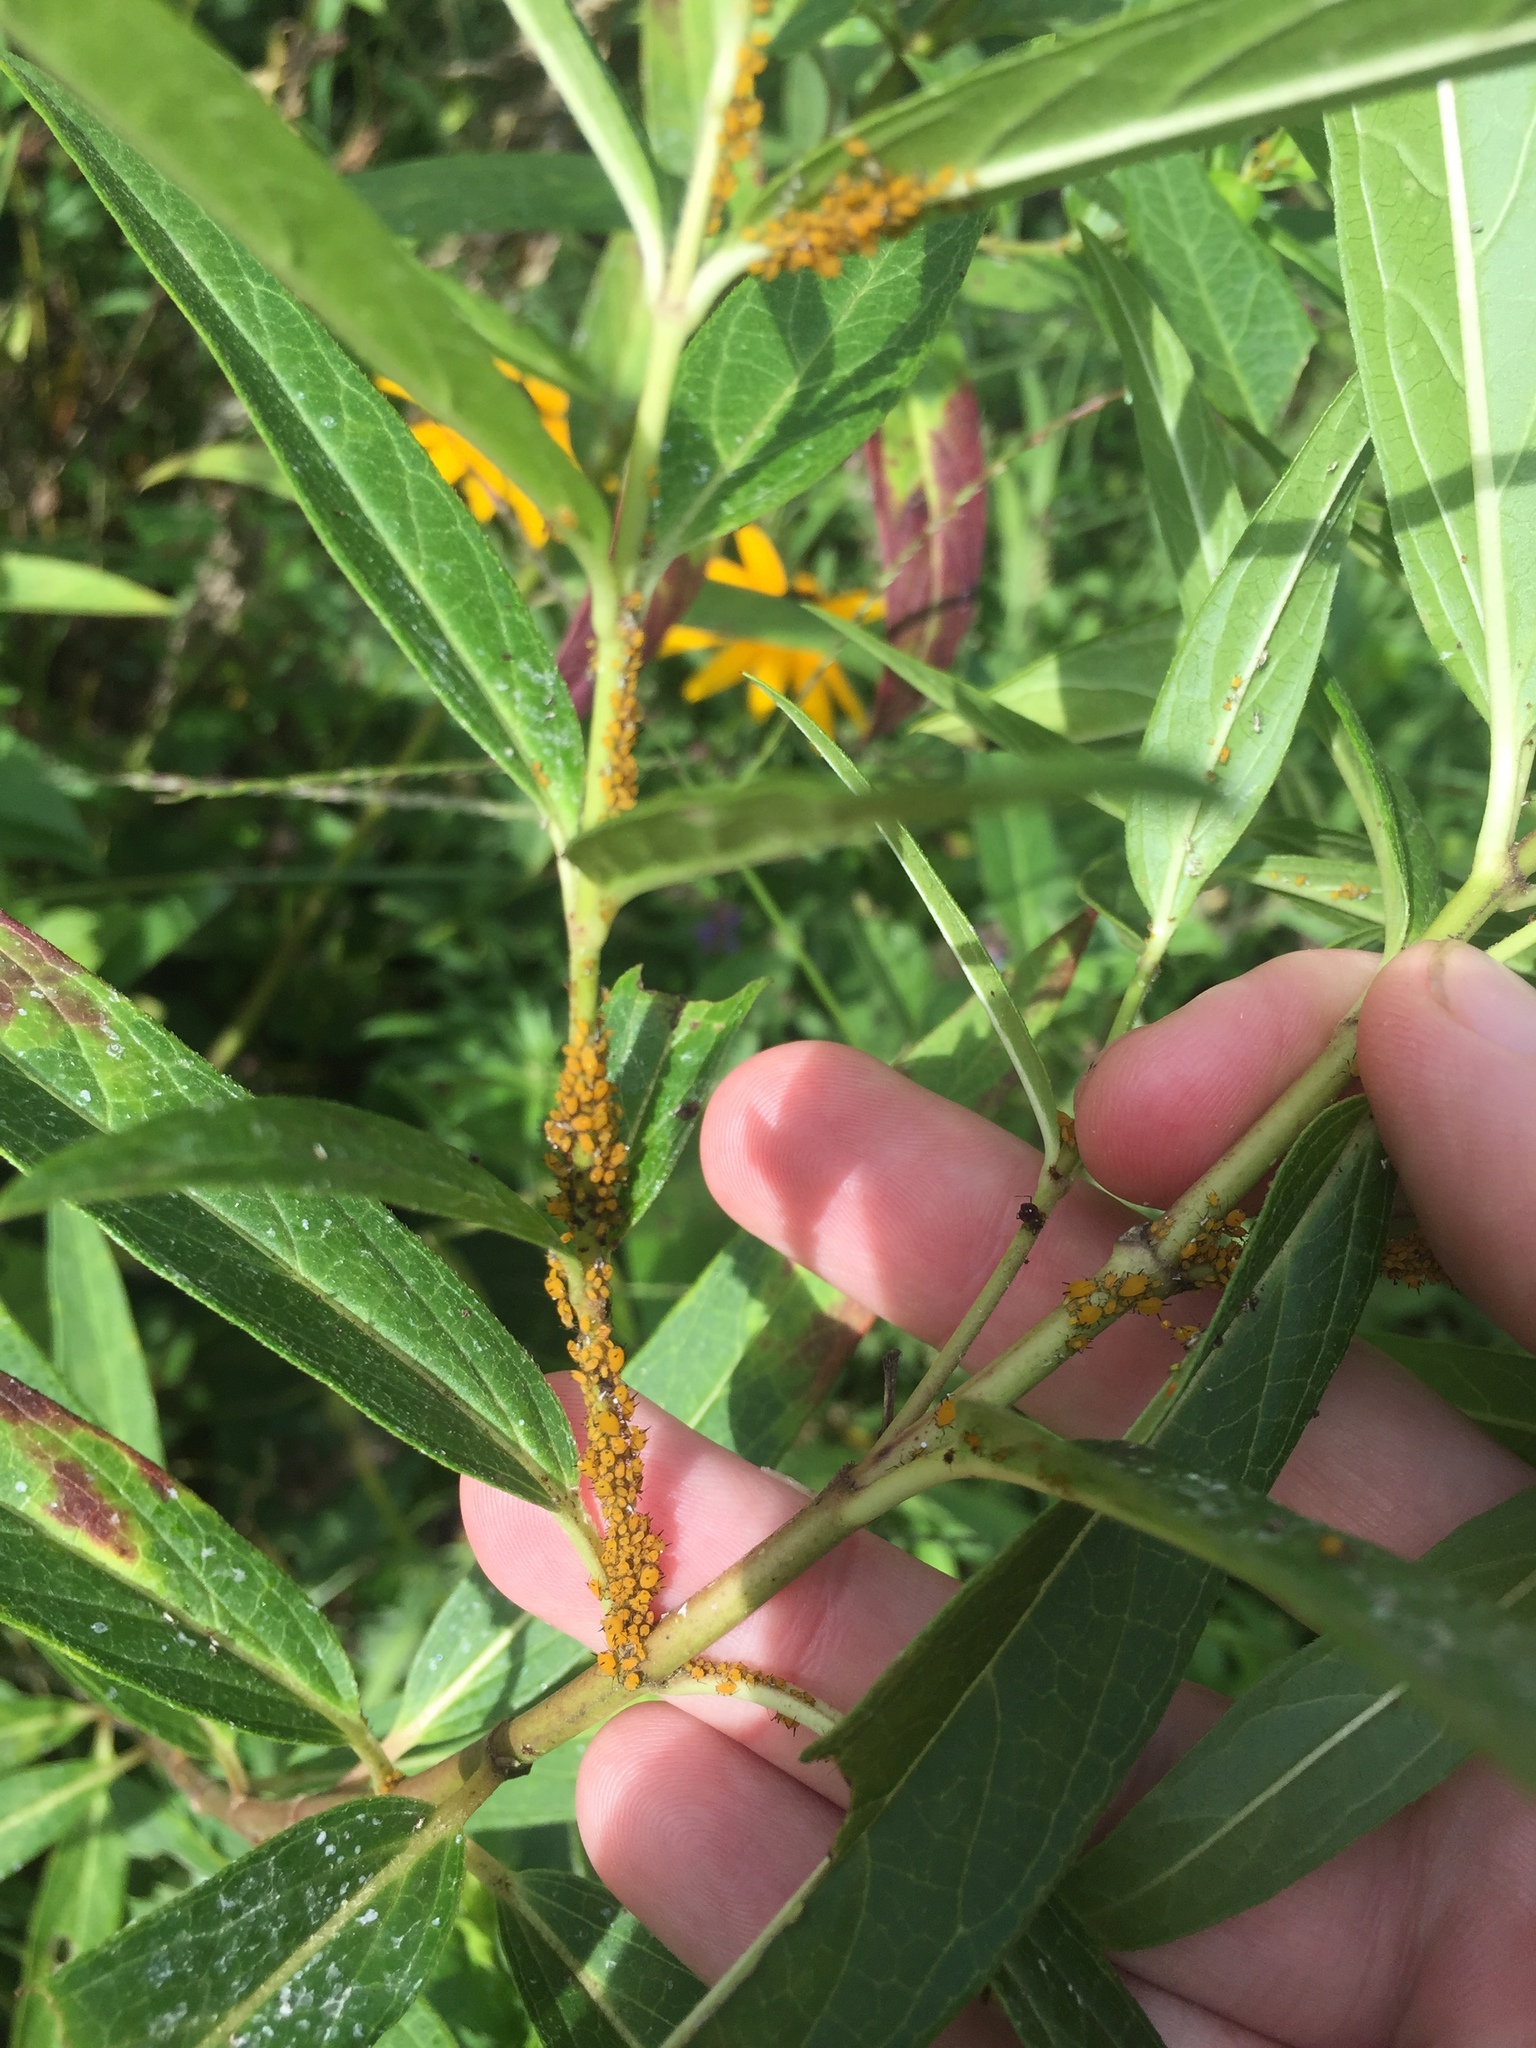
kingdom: Animalia
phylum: Arthropoda
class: Insecta
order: Hemiptera
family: Aphididae
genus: Aphis
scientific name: Aphis nerii
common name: Oleander aphid
